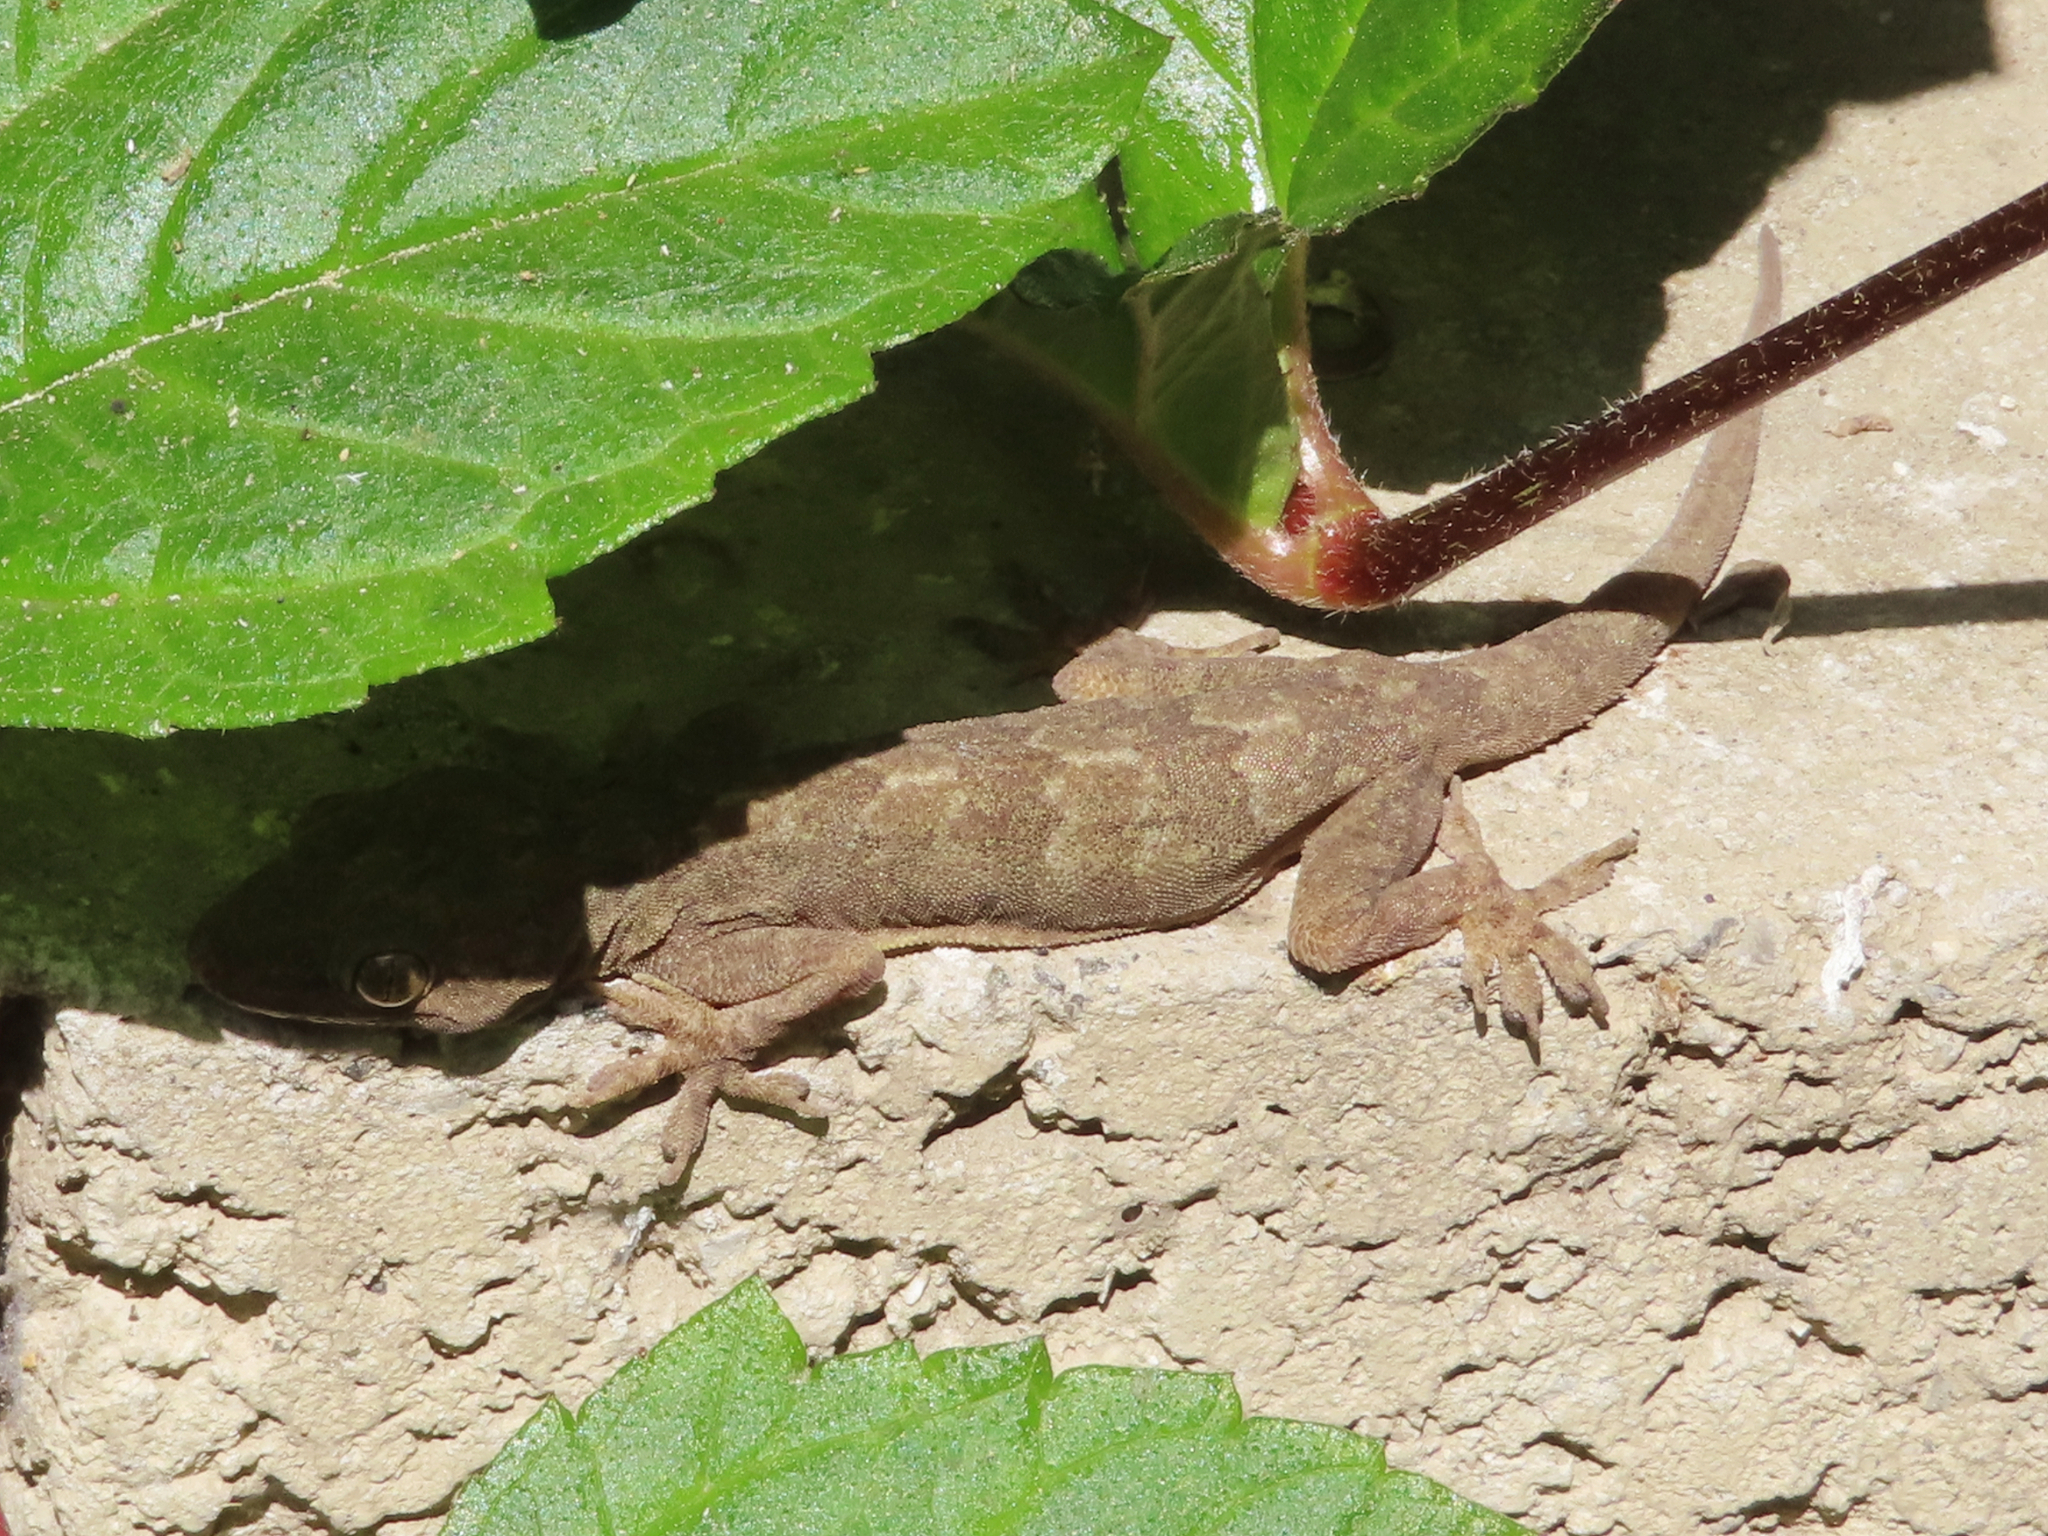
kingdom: Animalia
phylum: Chordata
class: Squamata
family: Gekkonidae
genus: Hemidactylus
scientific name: Hemidactylus flaviviridis
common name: Northern house gecko
